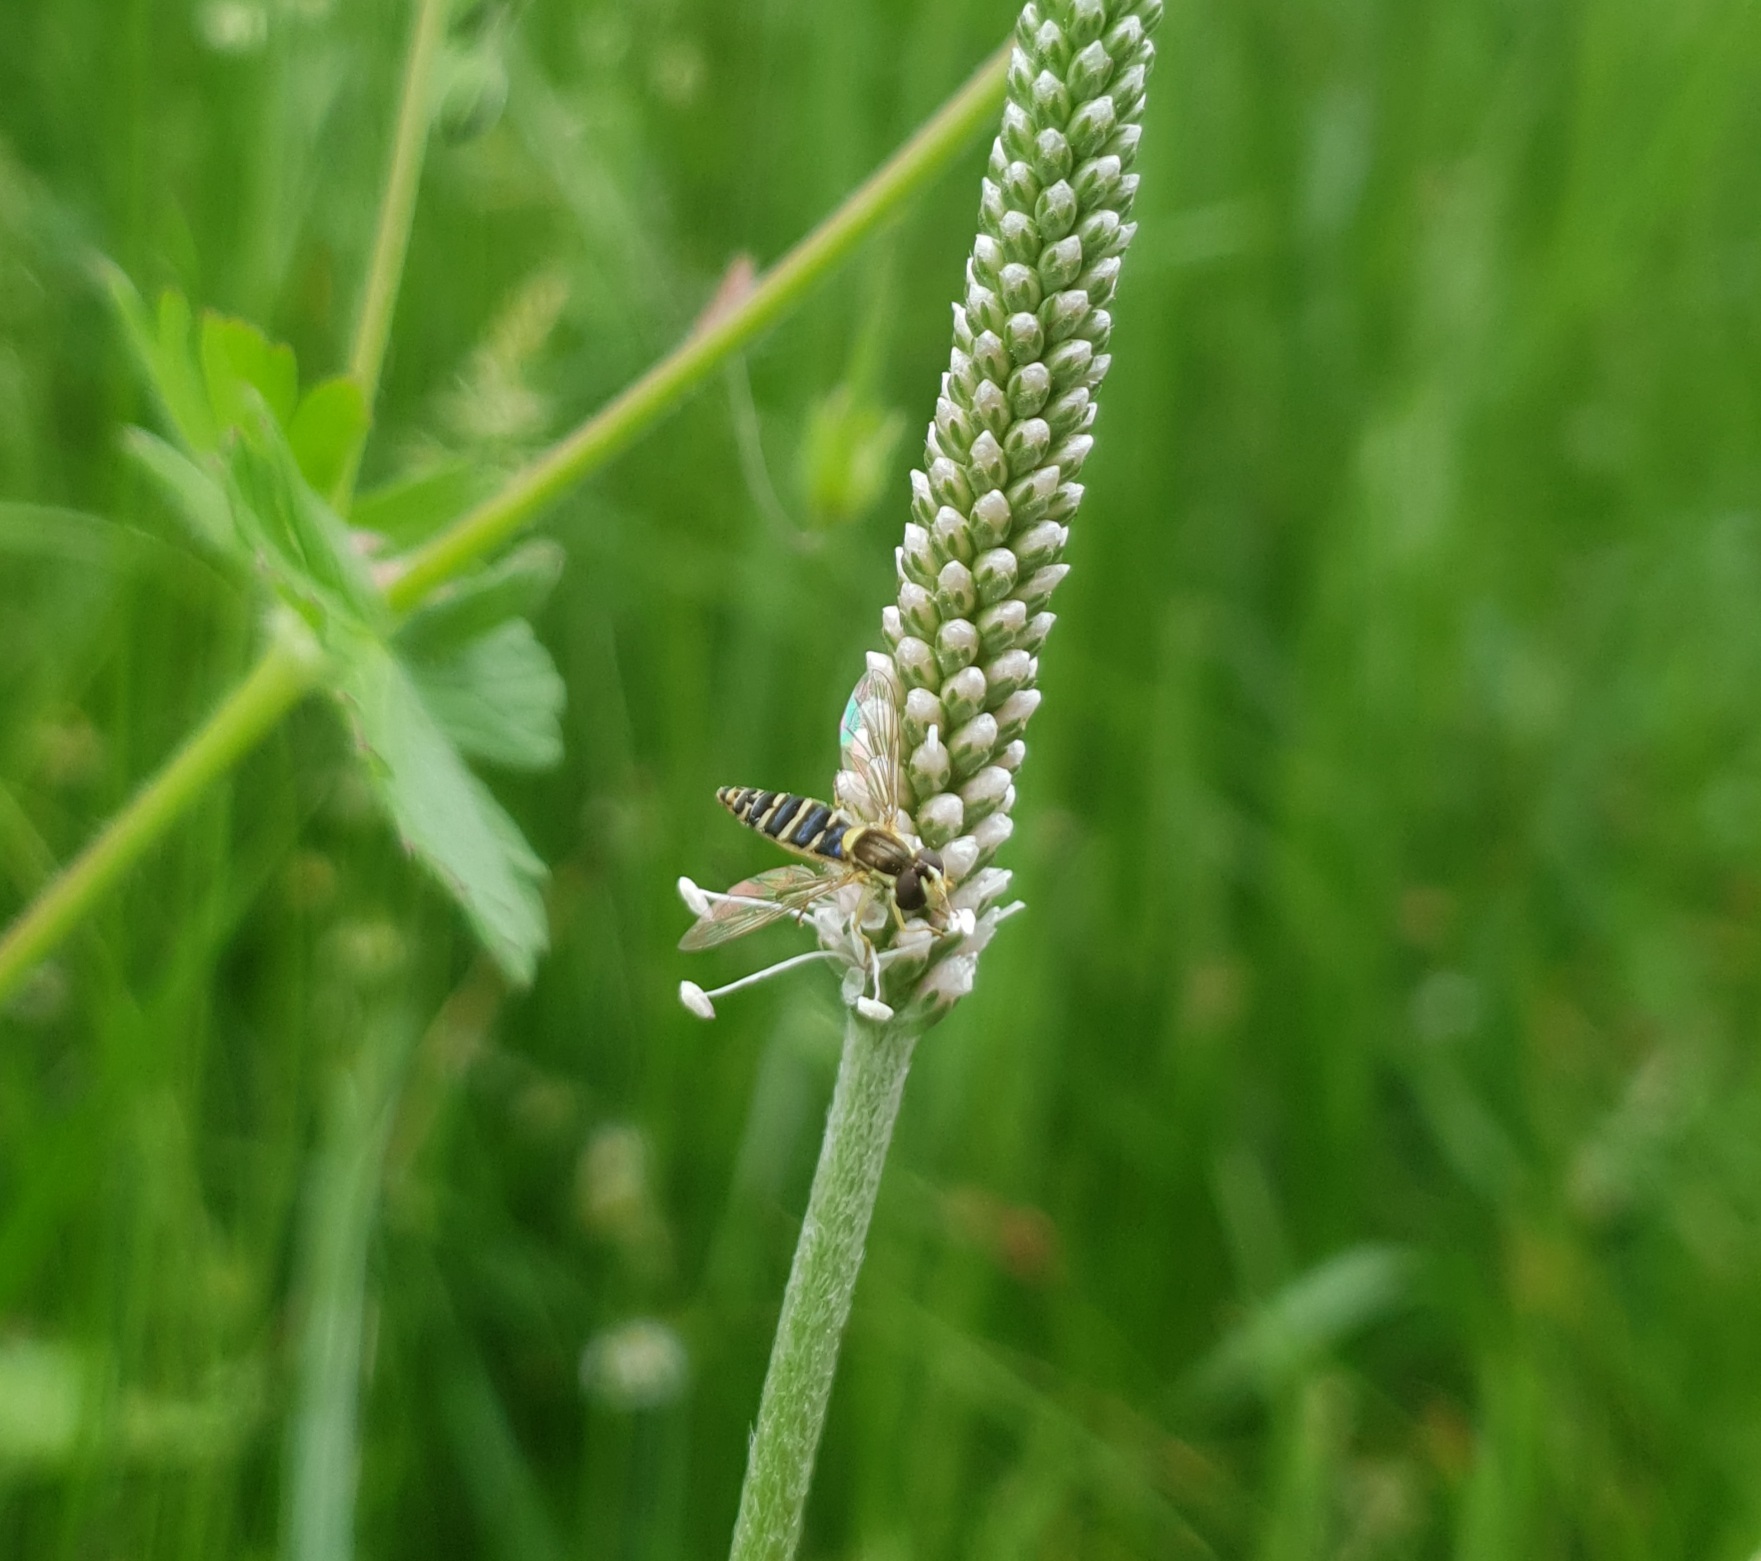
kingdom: Animalia
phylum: Arthropoda
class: Insecta
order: Diptera
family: Syrphidae
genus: Sphaerophoria
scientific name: Sphaerophoria
